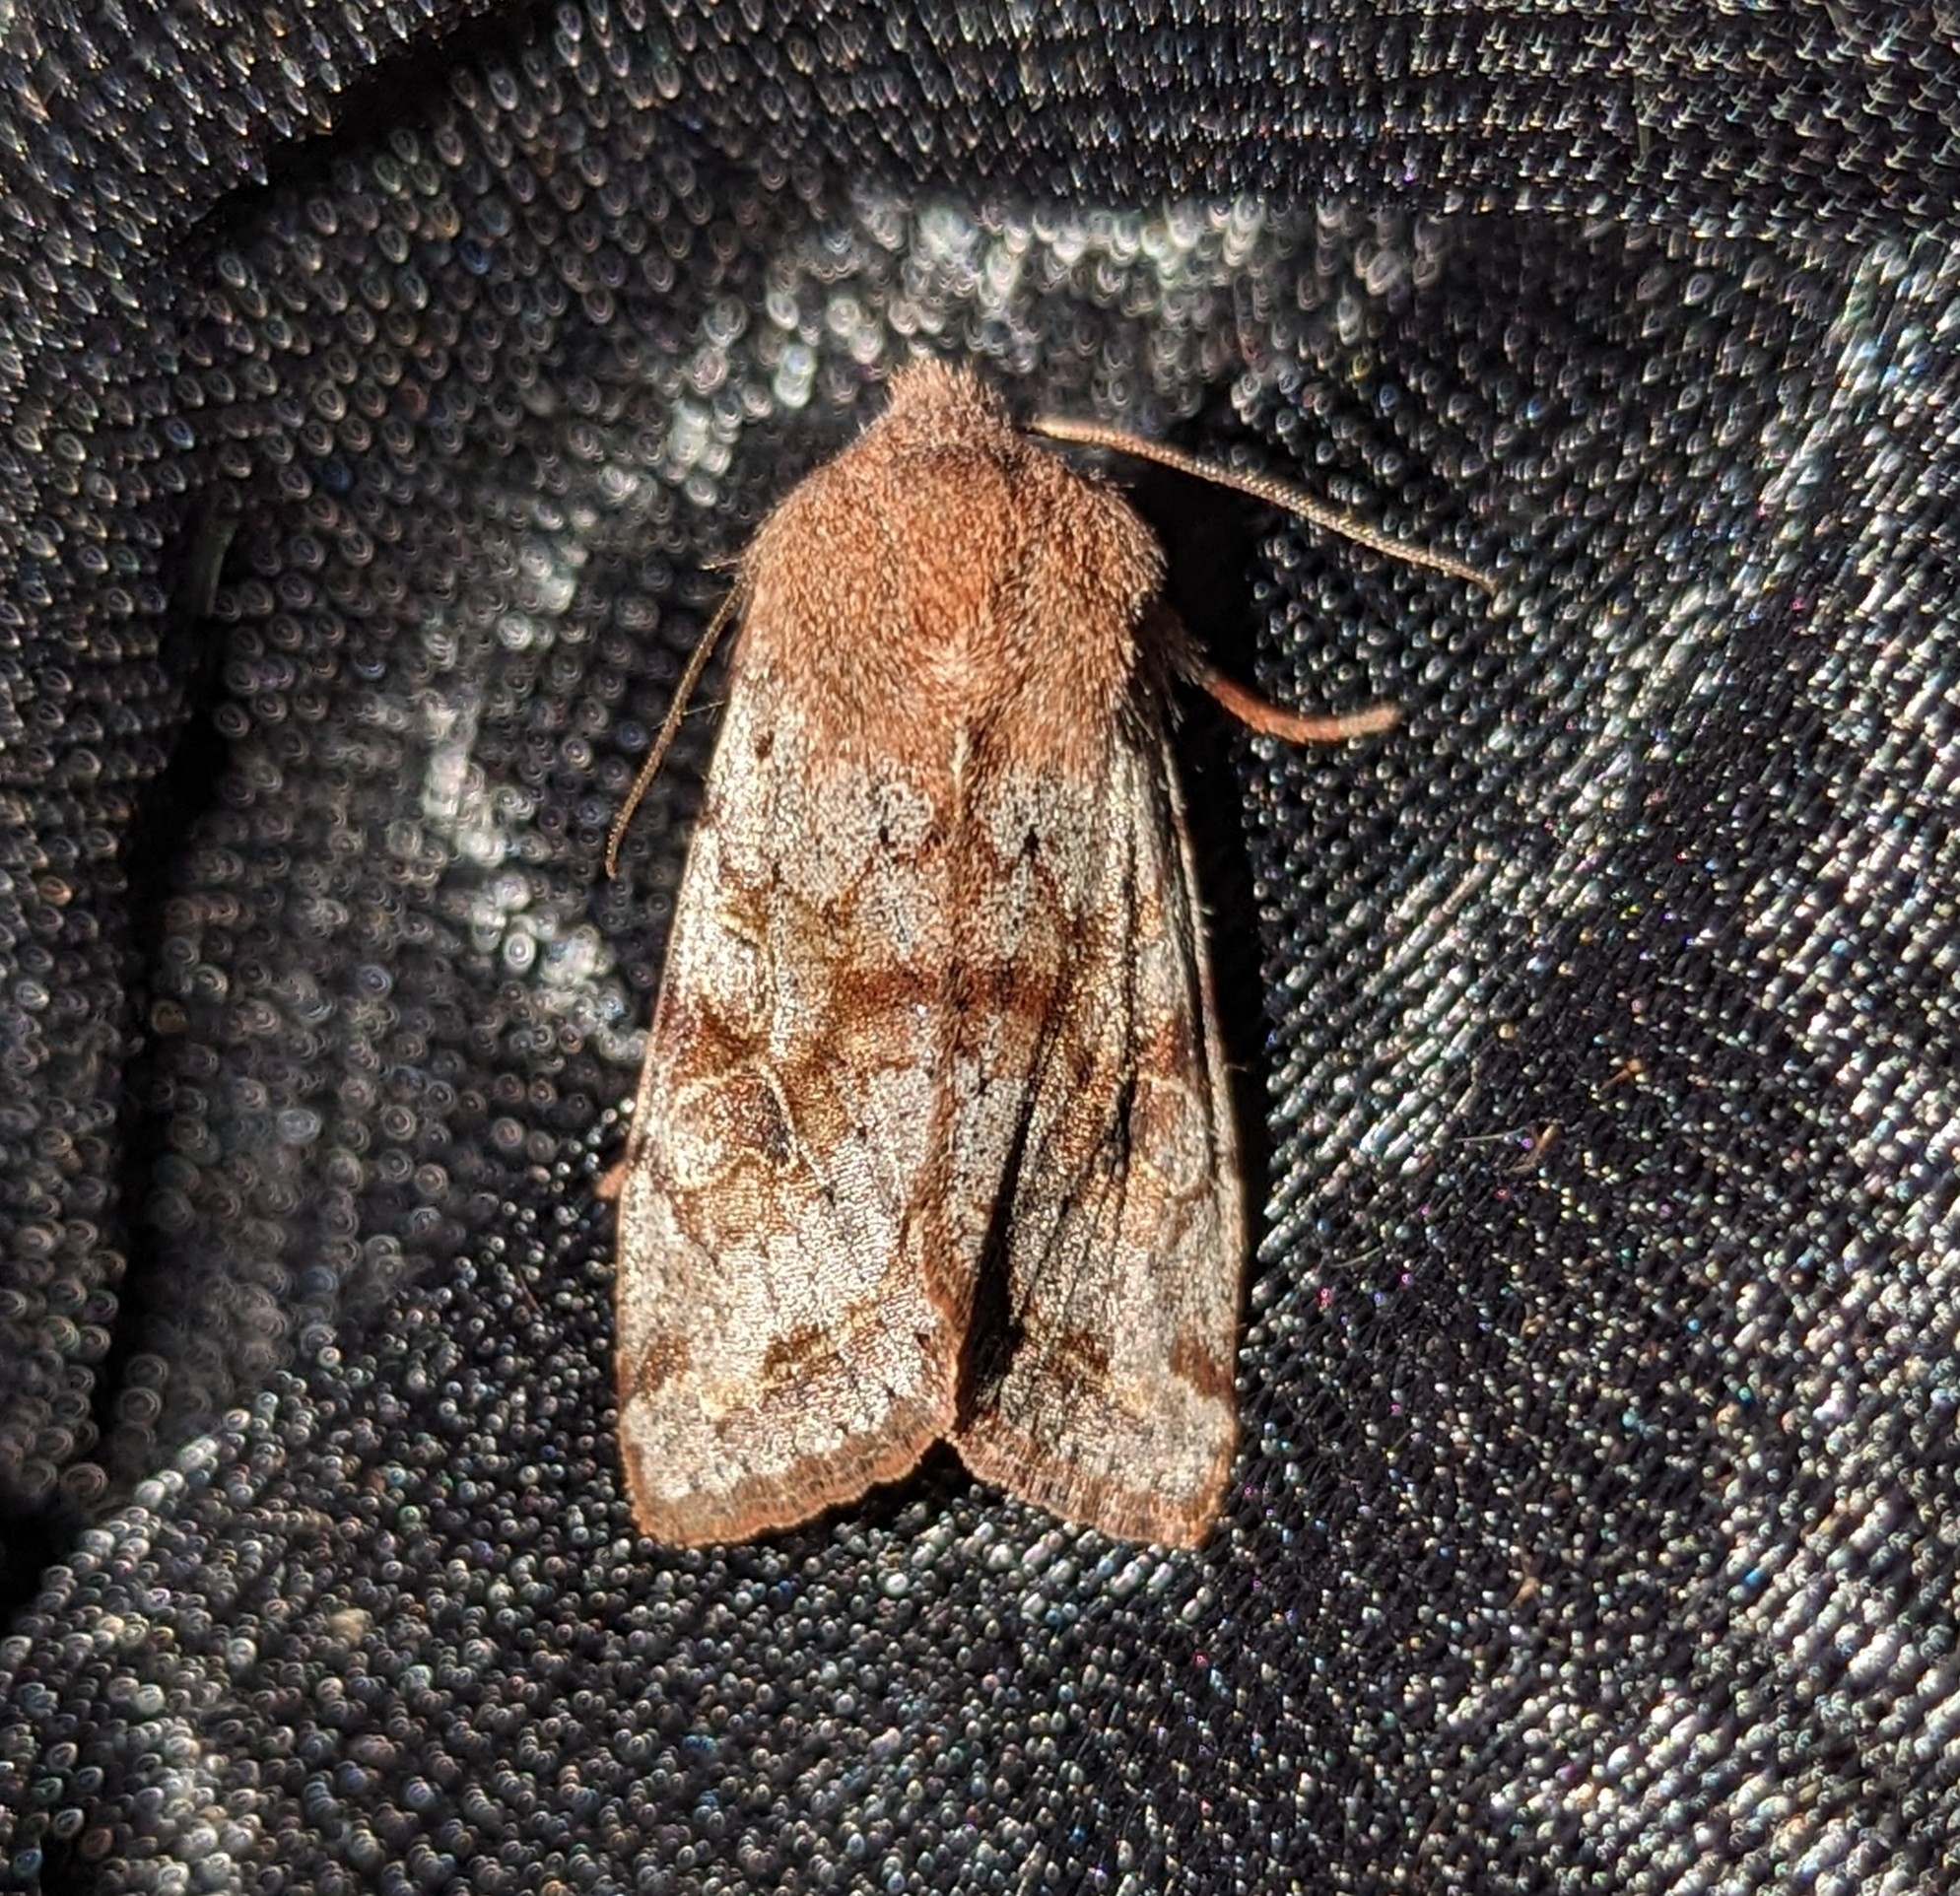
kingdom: Animalia
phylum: Arthropoda
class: Insecta
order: Lepidoptera
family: Noctuidae
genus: Orthosia
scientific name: Orthosia hibisci
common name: Green fruitworm
